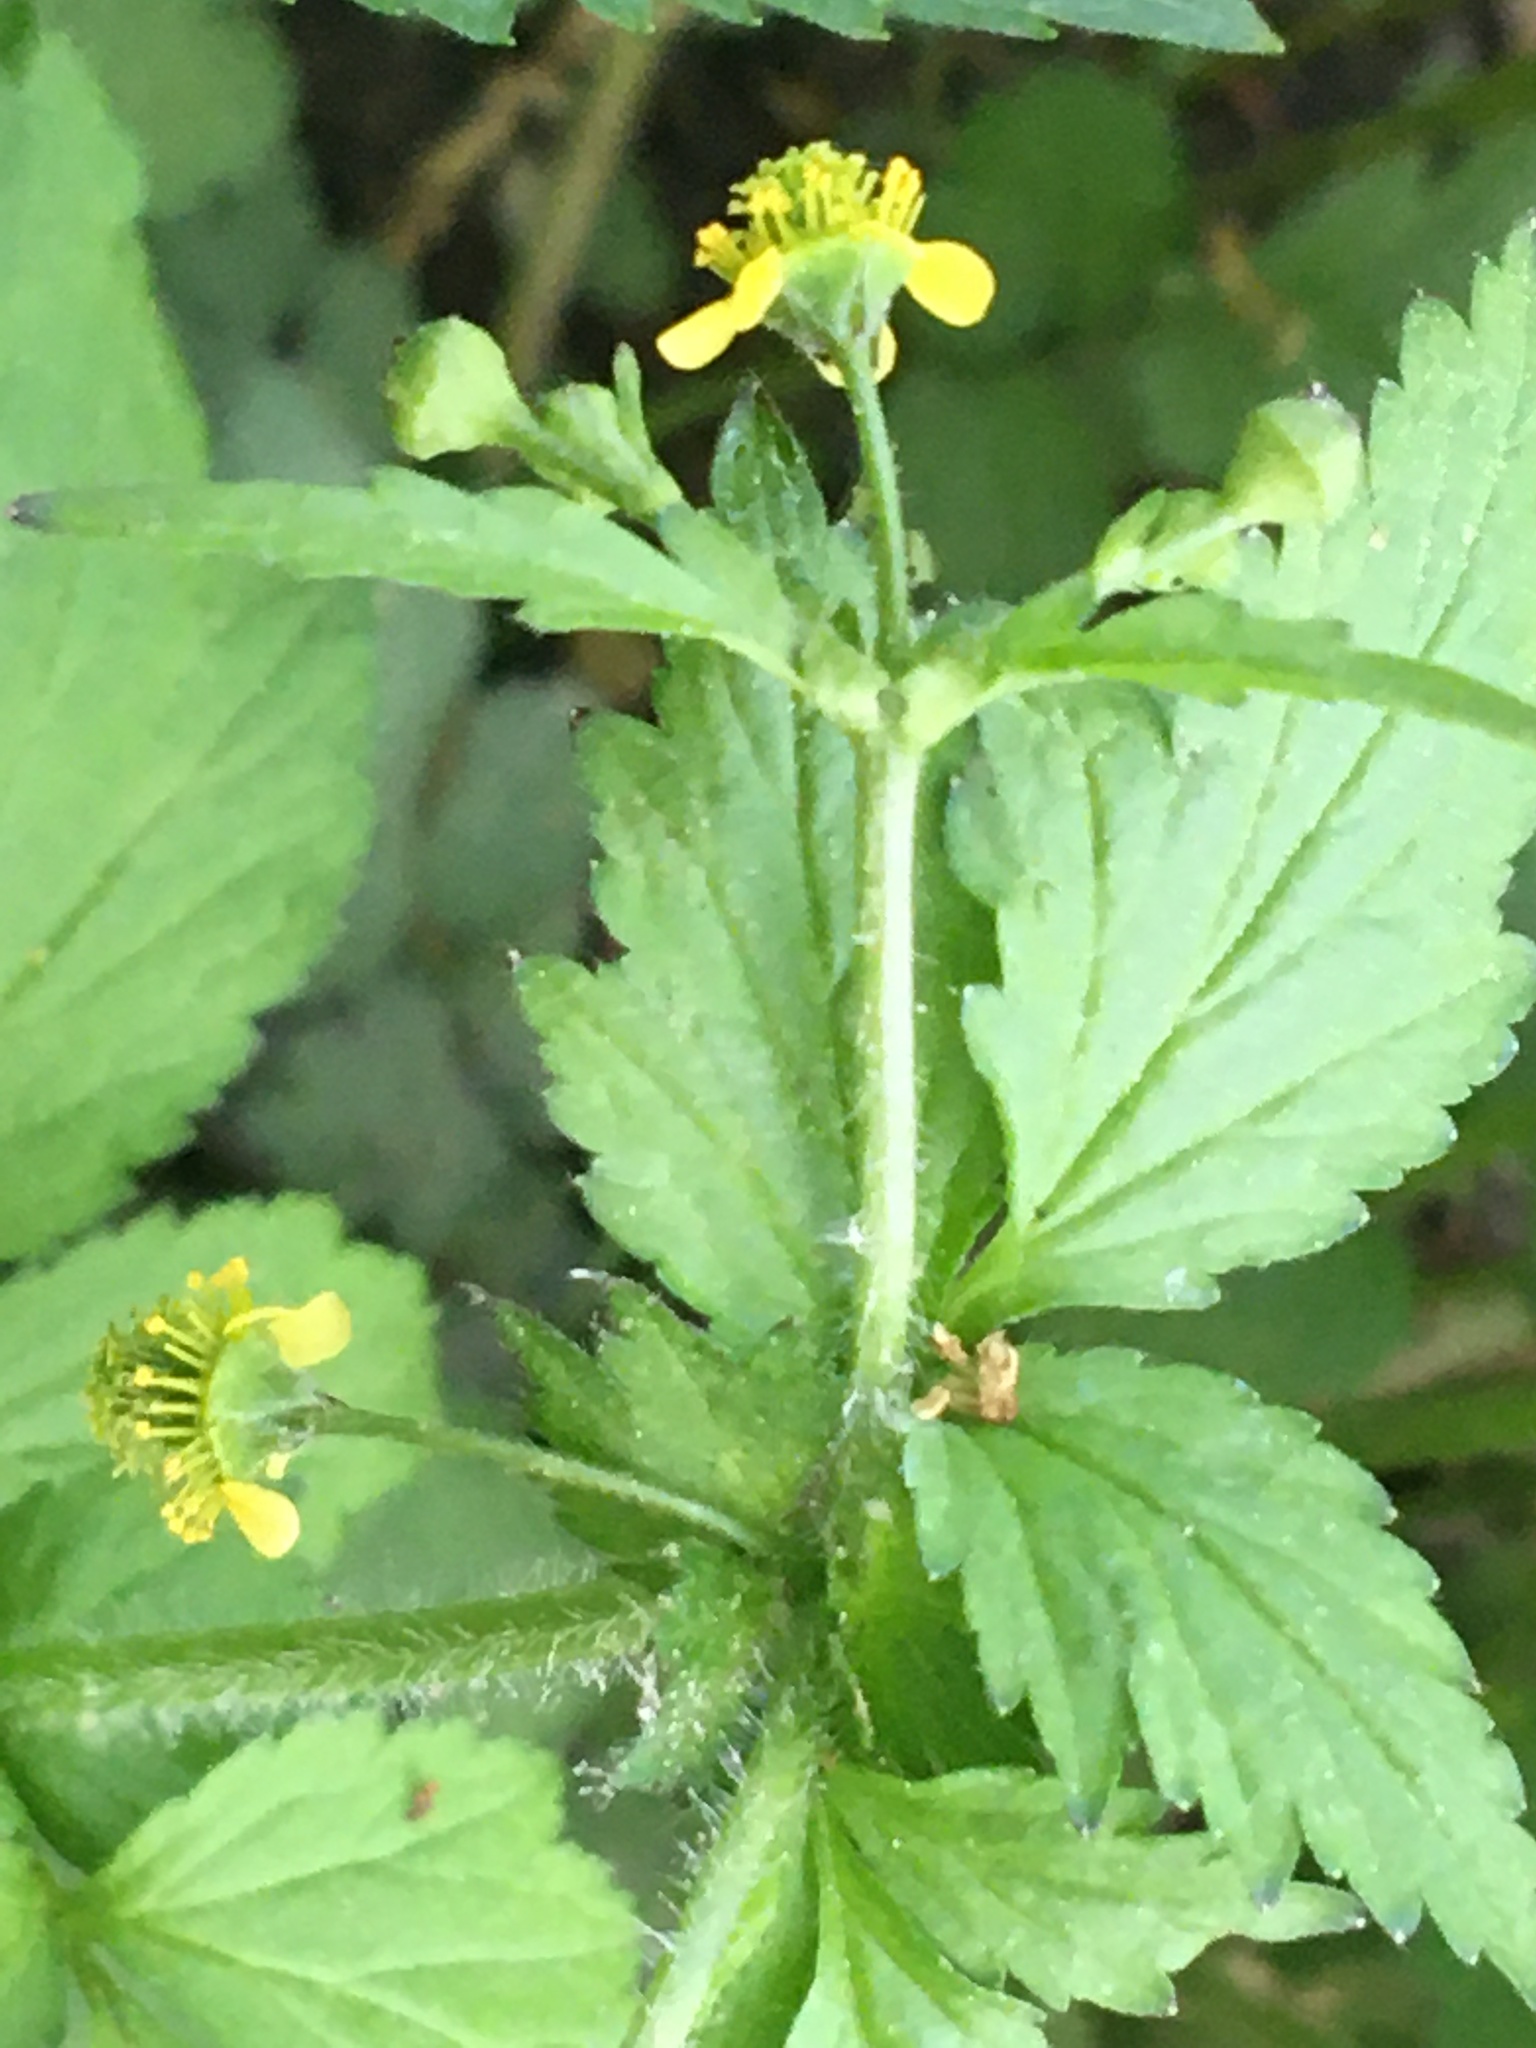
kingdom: Plantae
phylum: Tracheophyta
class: Magnoliopsida
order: Rosales
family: Rosaceae
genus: Geum
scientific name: Geum vernum
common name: Spring avens
